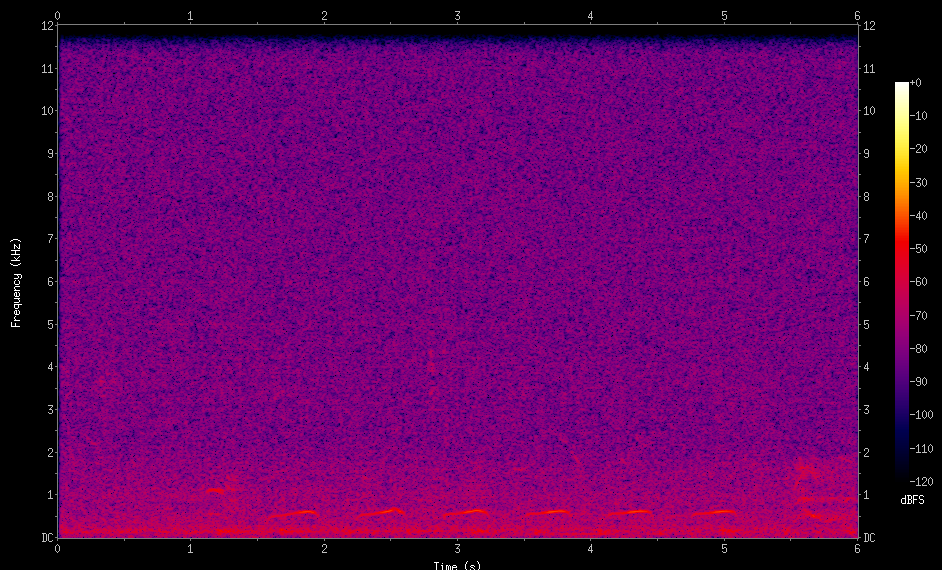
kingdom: Animalia
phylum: Chordata
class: Aves
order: Columbiformes
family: Columbidae
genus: Columbina
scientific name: Columbina picui
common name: Picui ground dove
